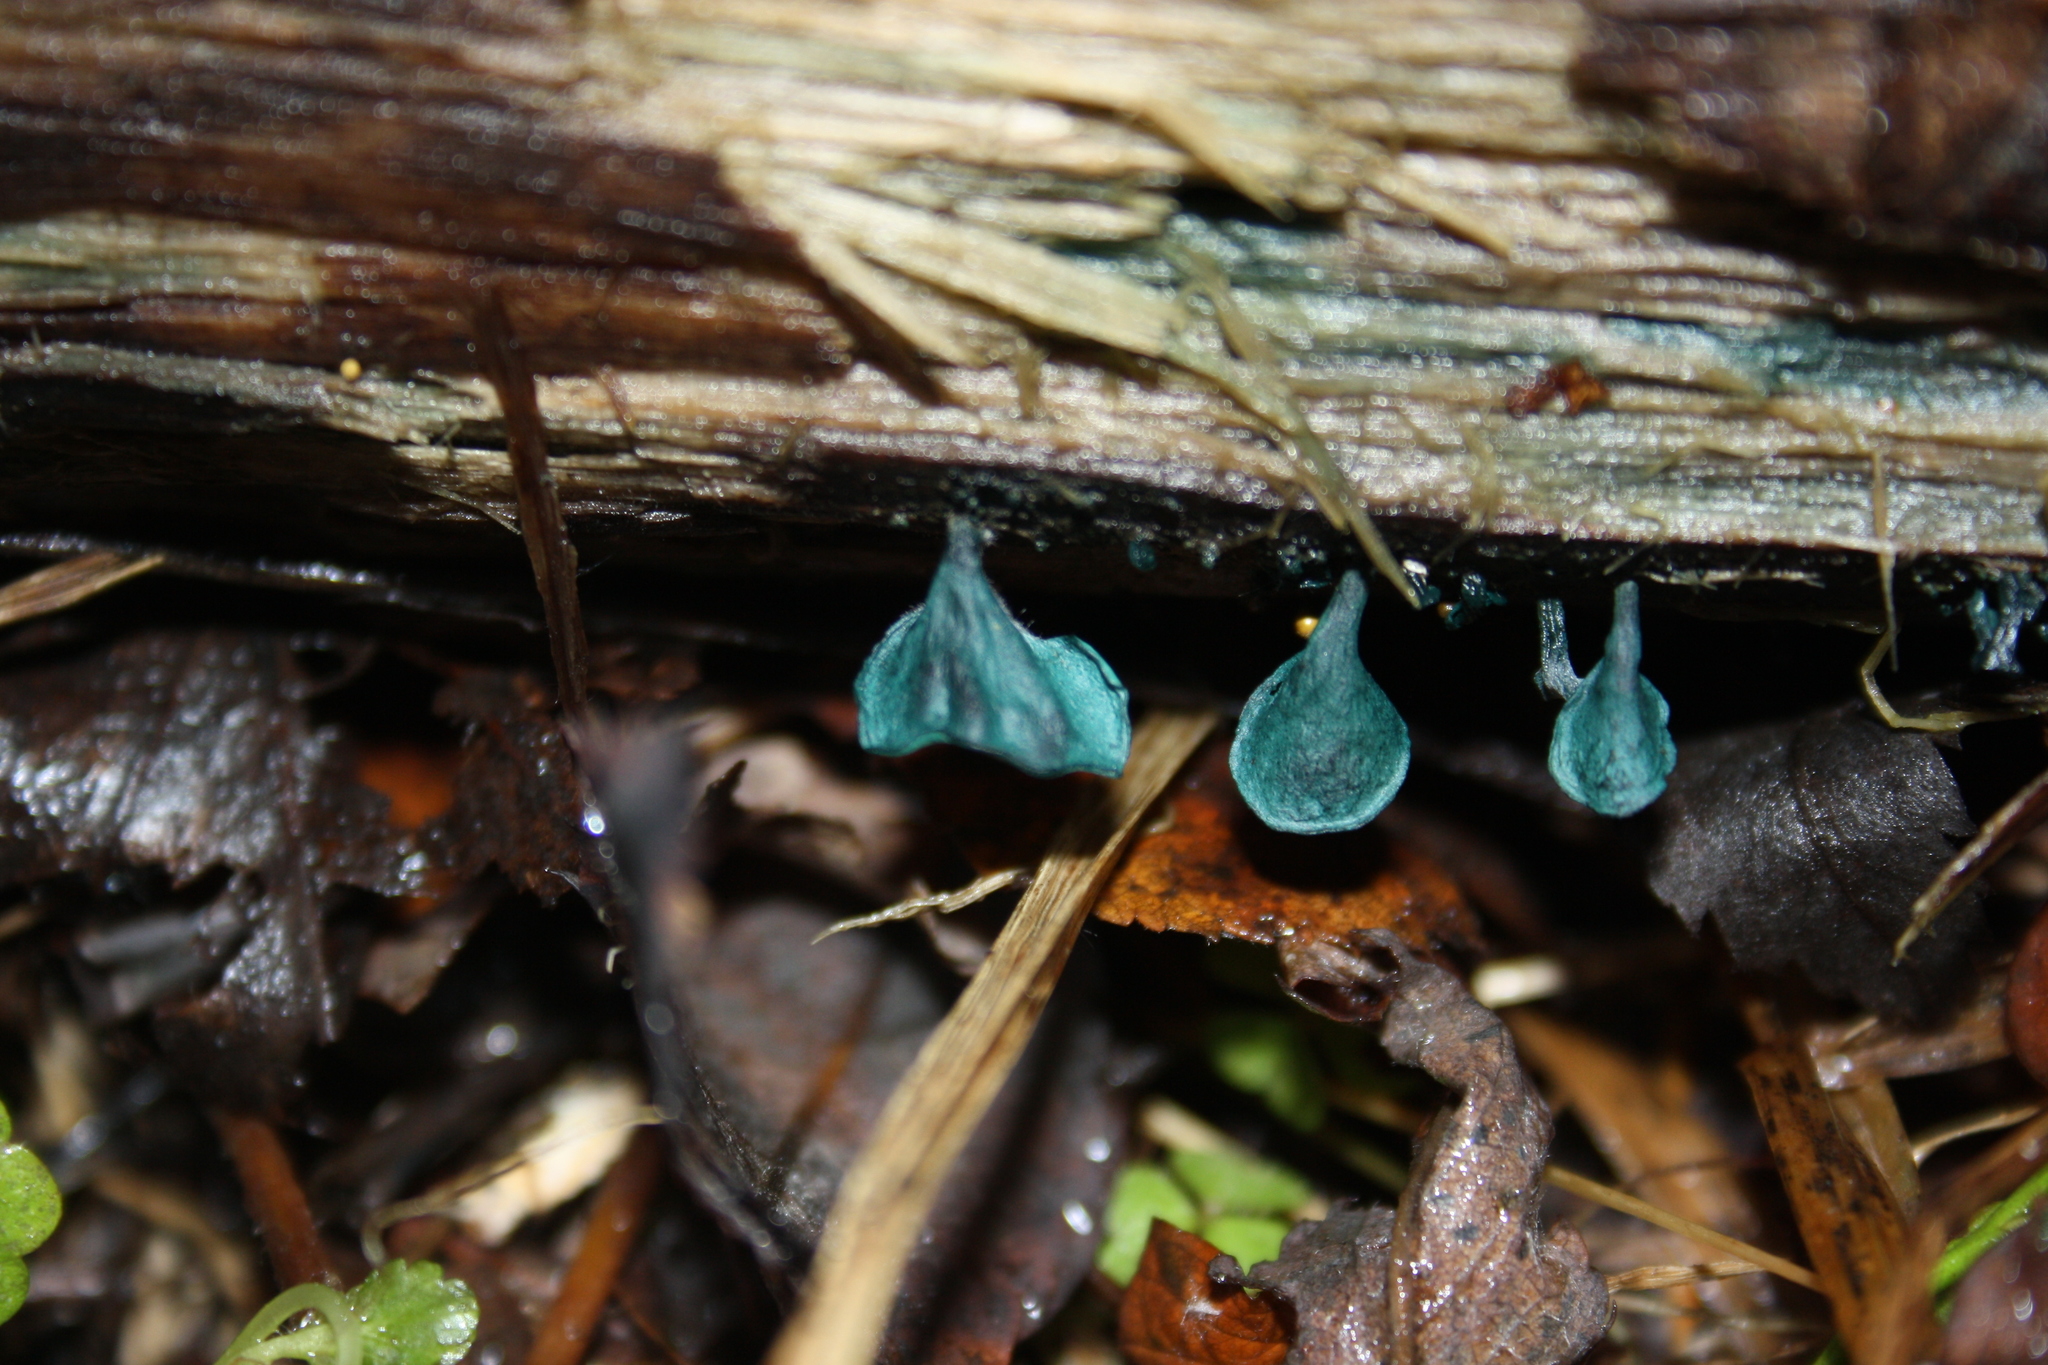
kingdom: Fungi
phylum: Ascomycota
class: Leotiomycetes
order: Helotiales
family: Chlorociboriaceae
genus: Chlorociboria
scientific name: Chlorociboria
